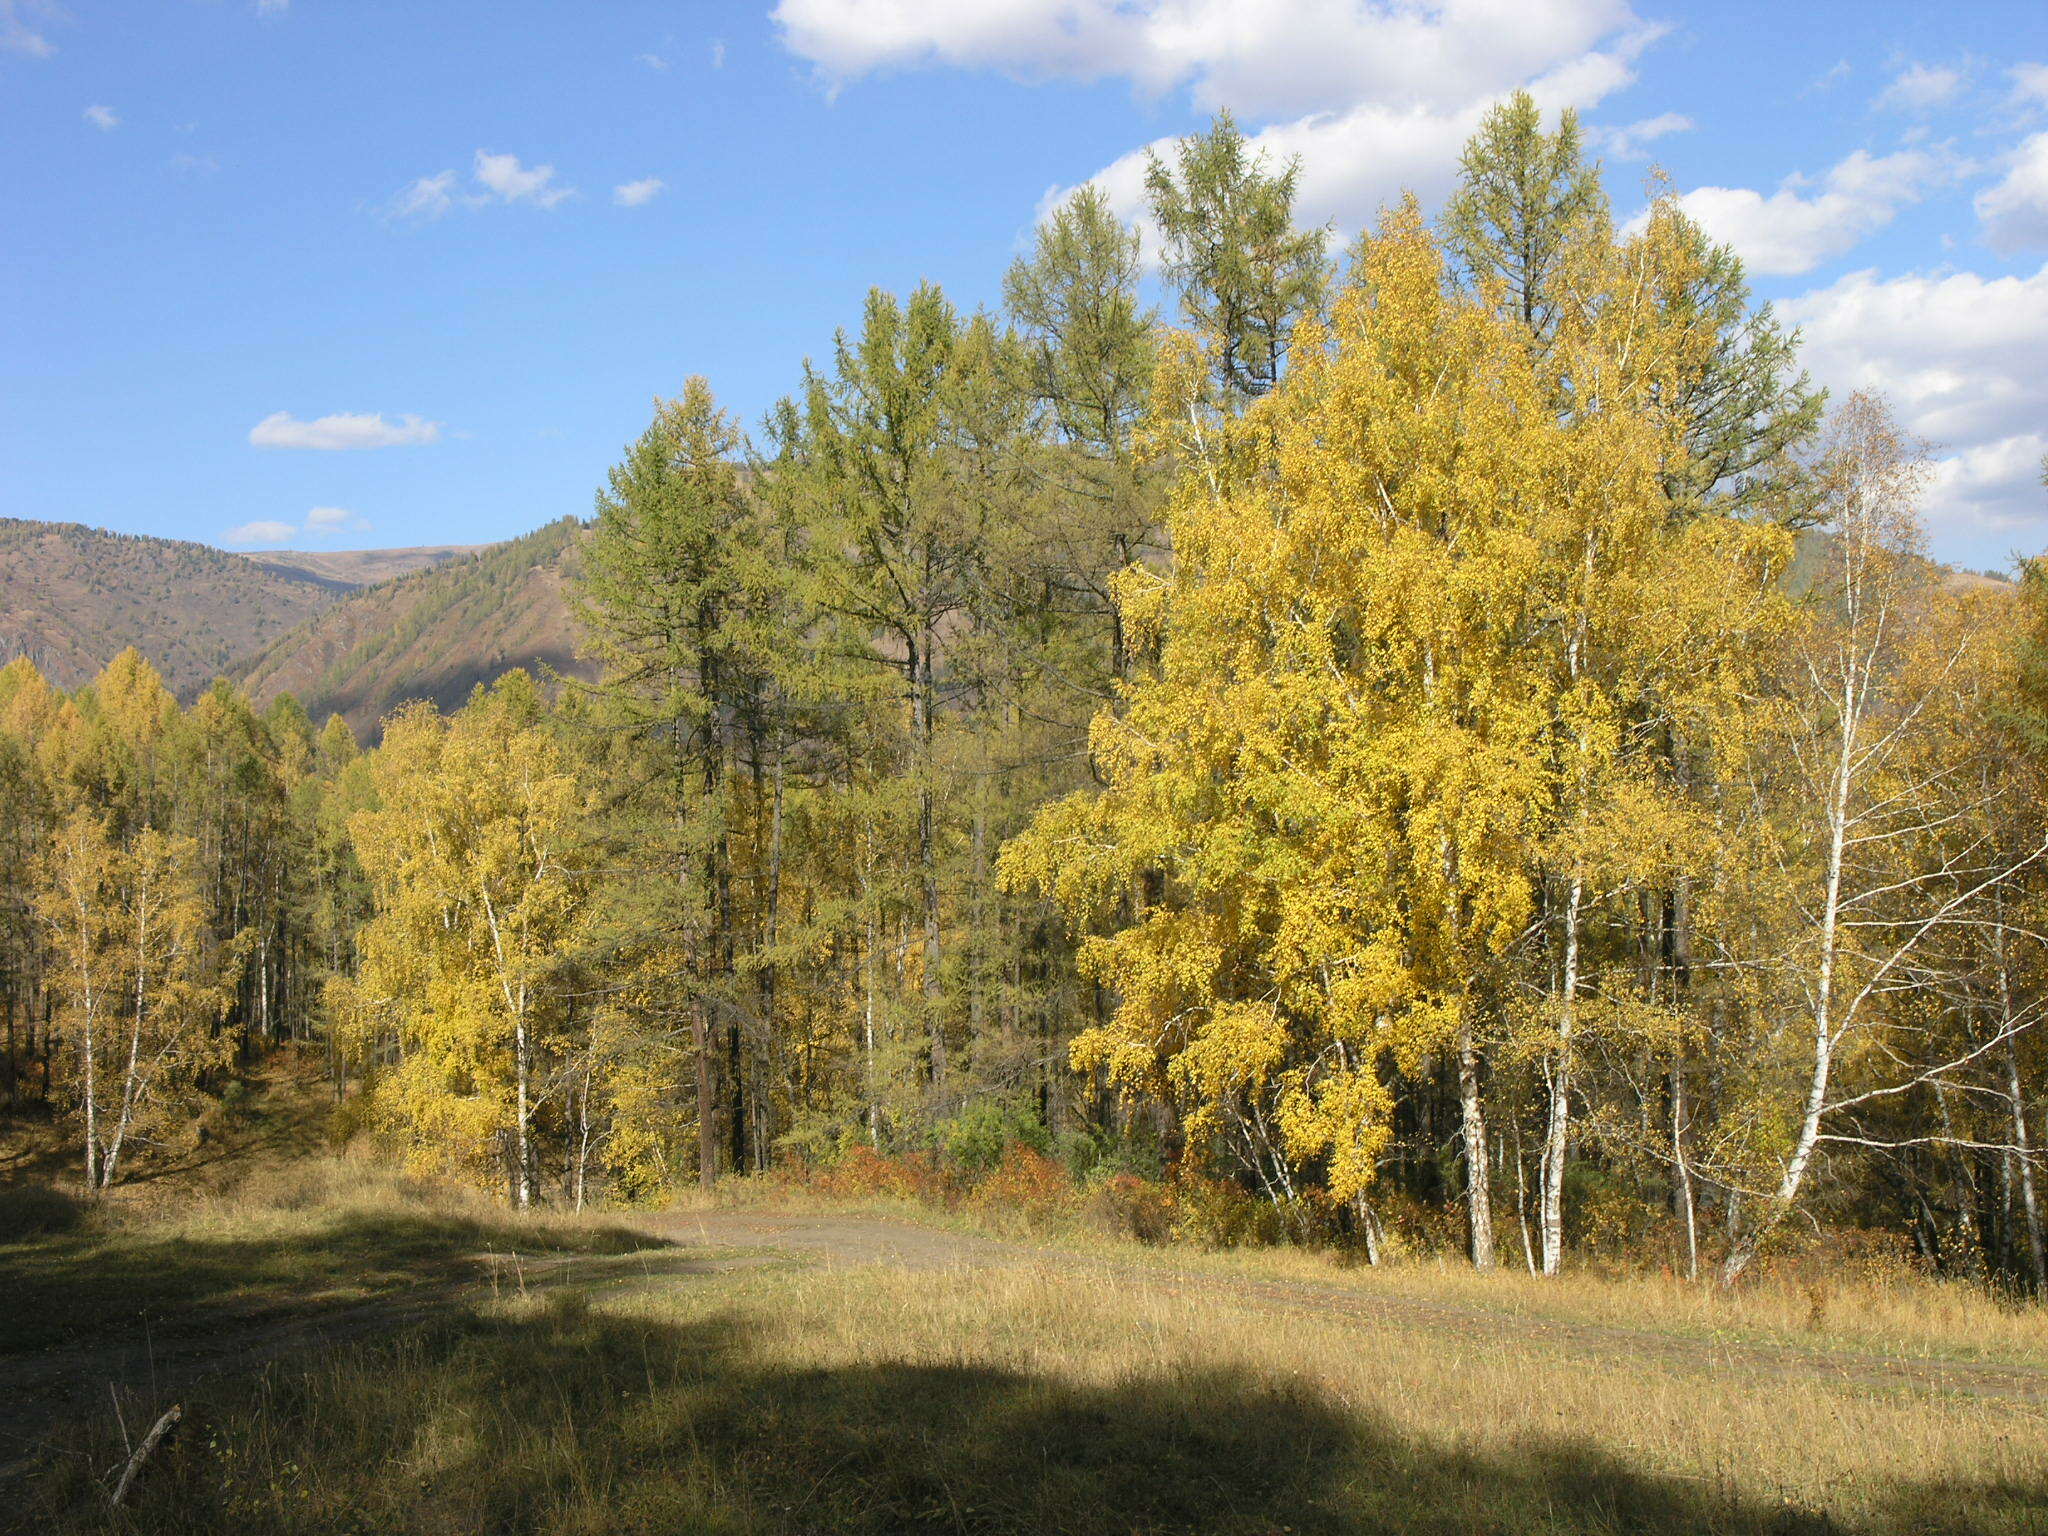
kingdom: Plantae
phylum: Tracheophyta
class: Pinopsida
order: Pinales
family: Pinaceae
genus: Larix
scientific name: Larix sibirica
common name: Siberian larch
